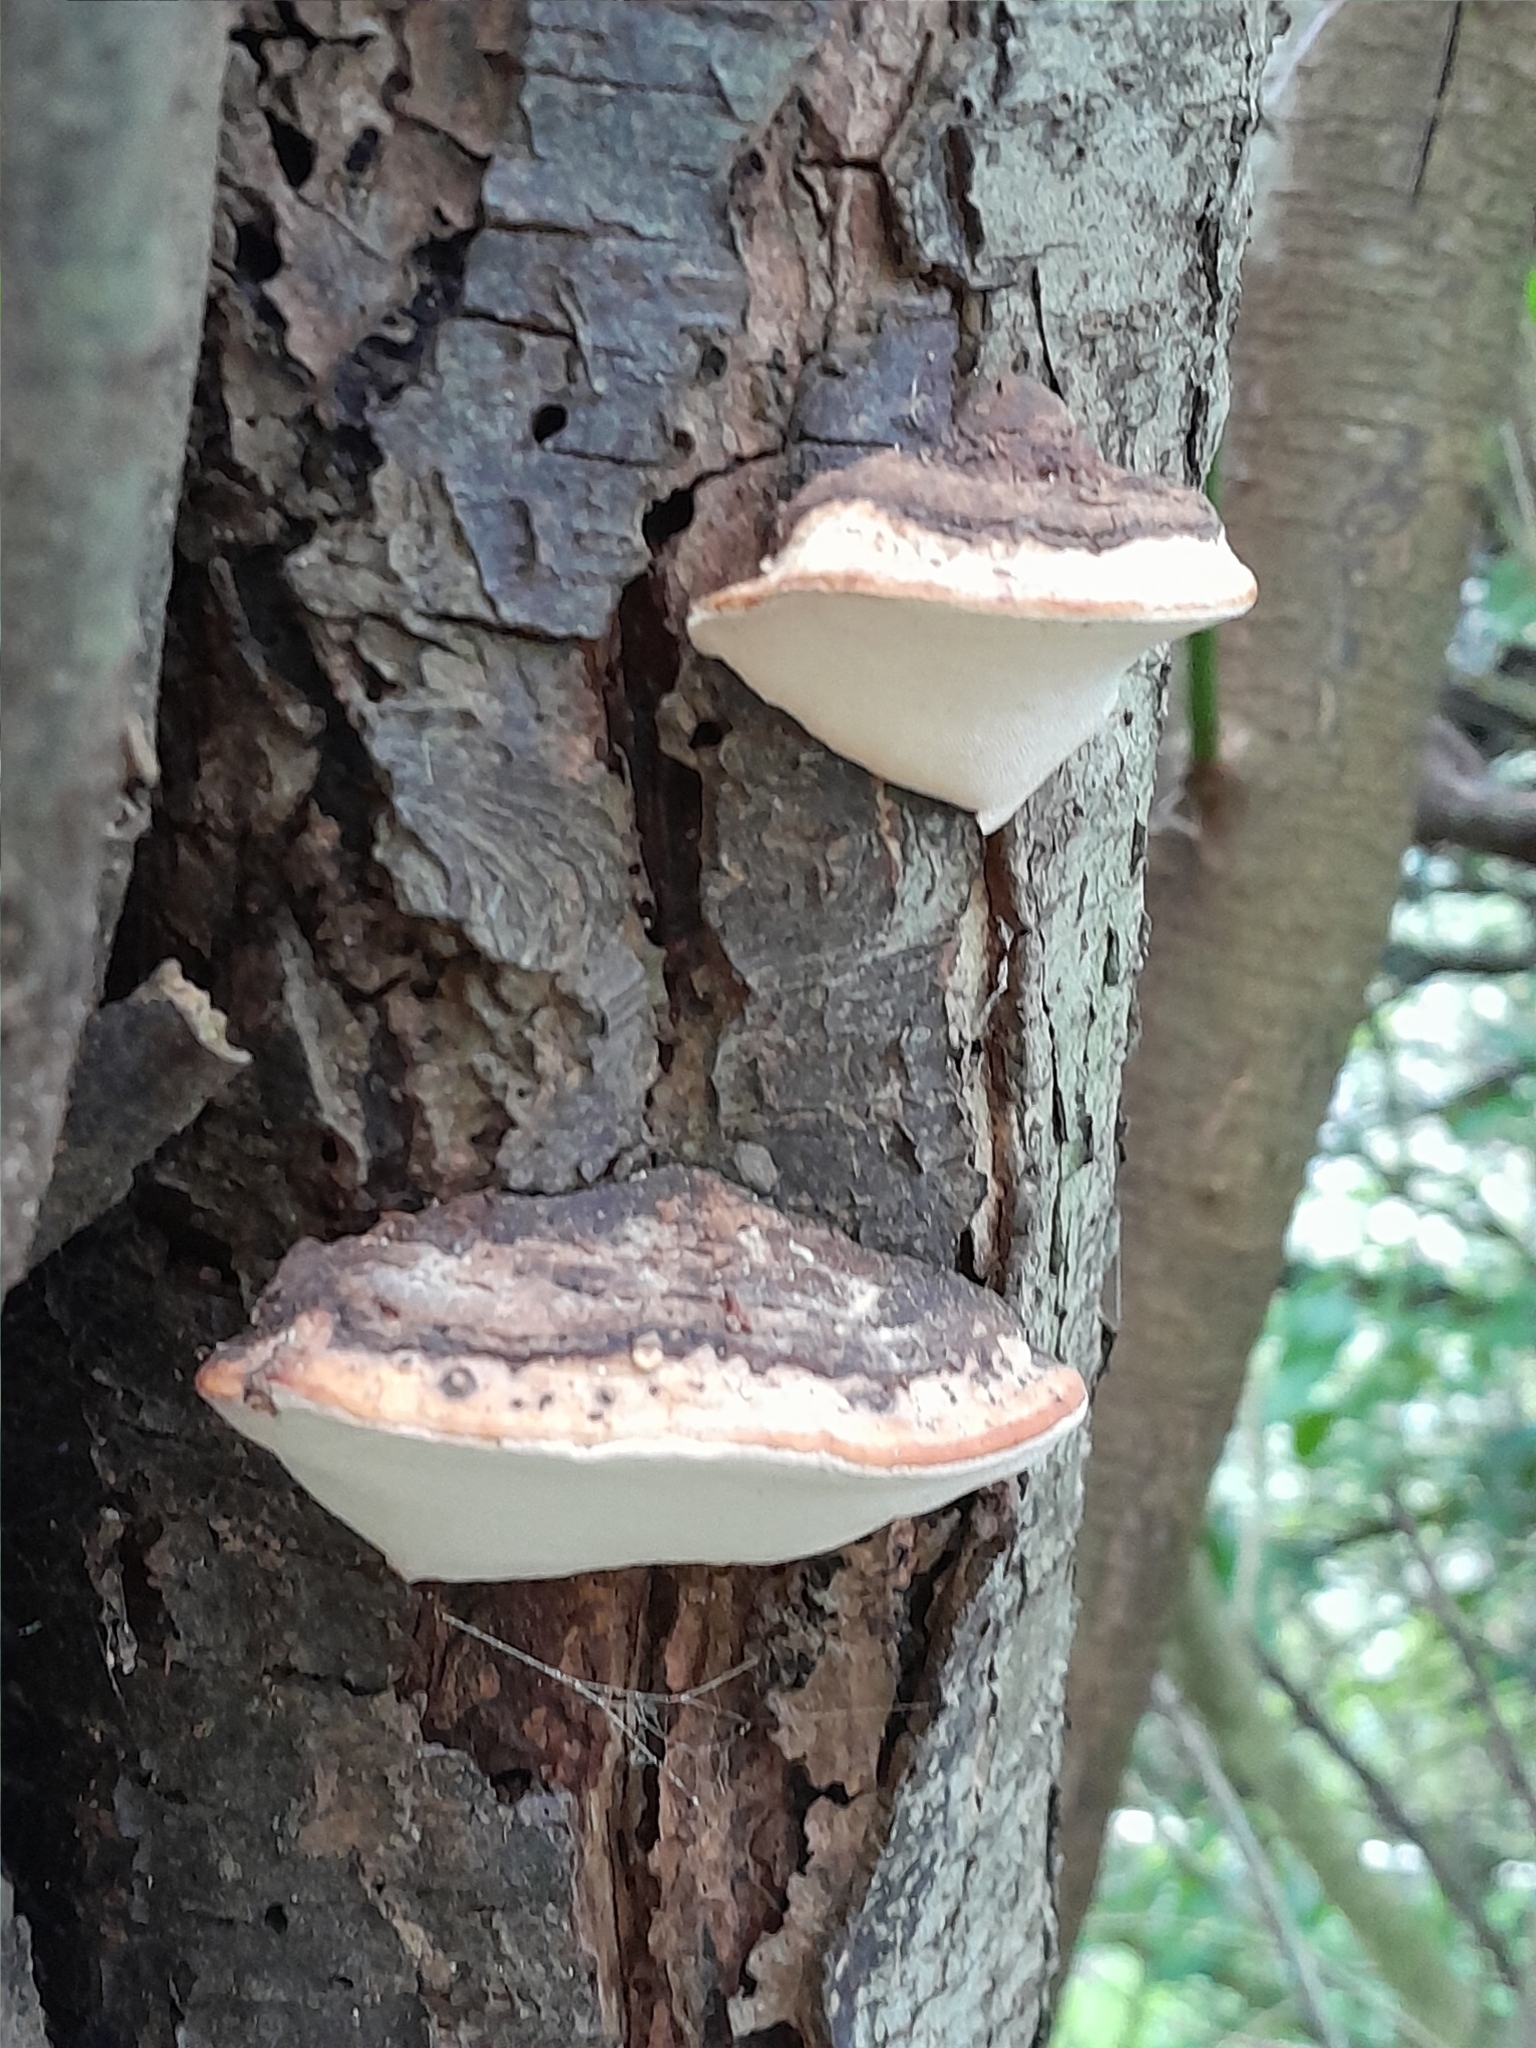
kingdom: Fungi
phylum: Basidiomycota
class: Agaricomycetes
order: Polyporales
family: Fomitopsidaceae
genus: Pilatoporus
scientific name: Pilatoporus hemitephrus
